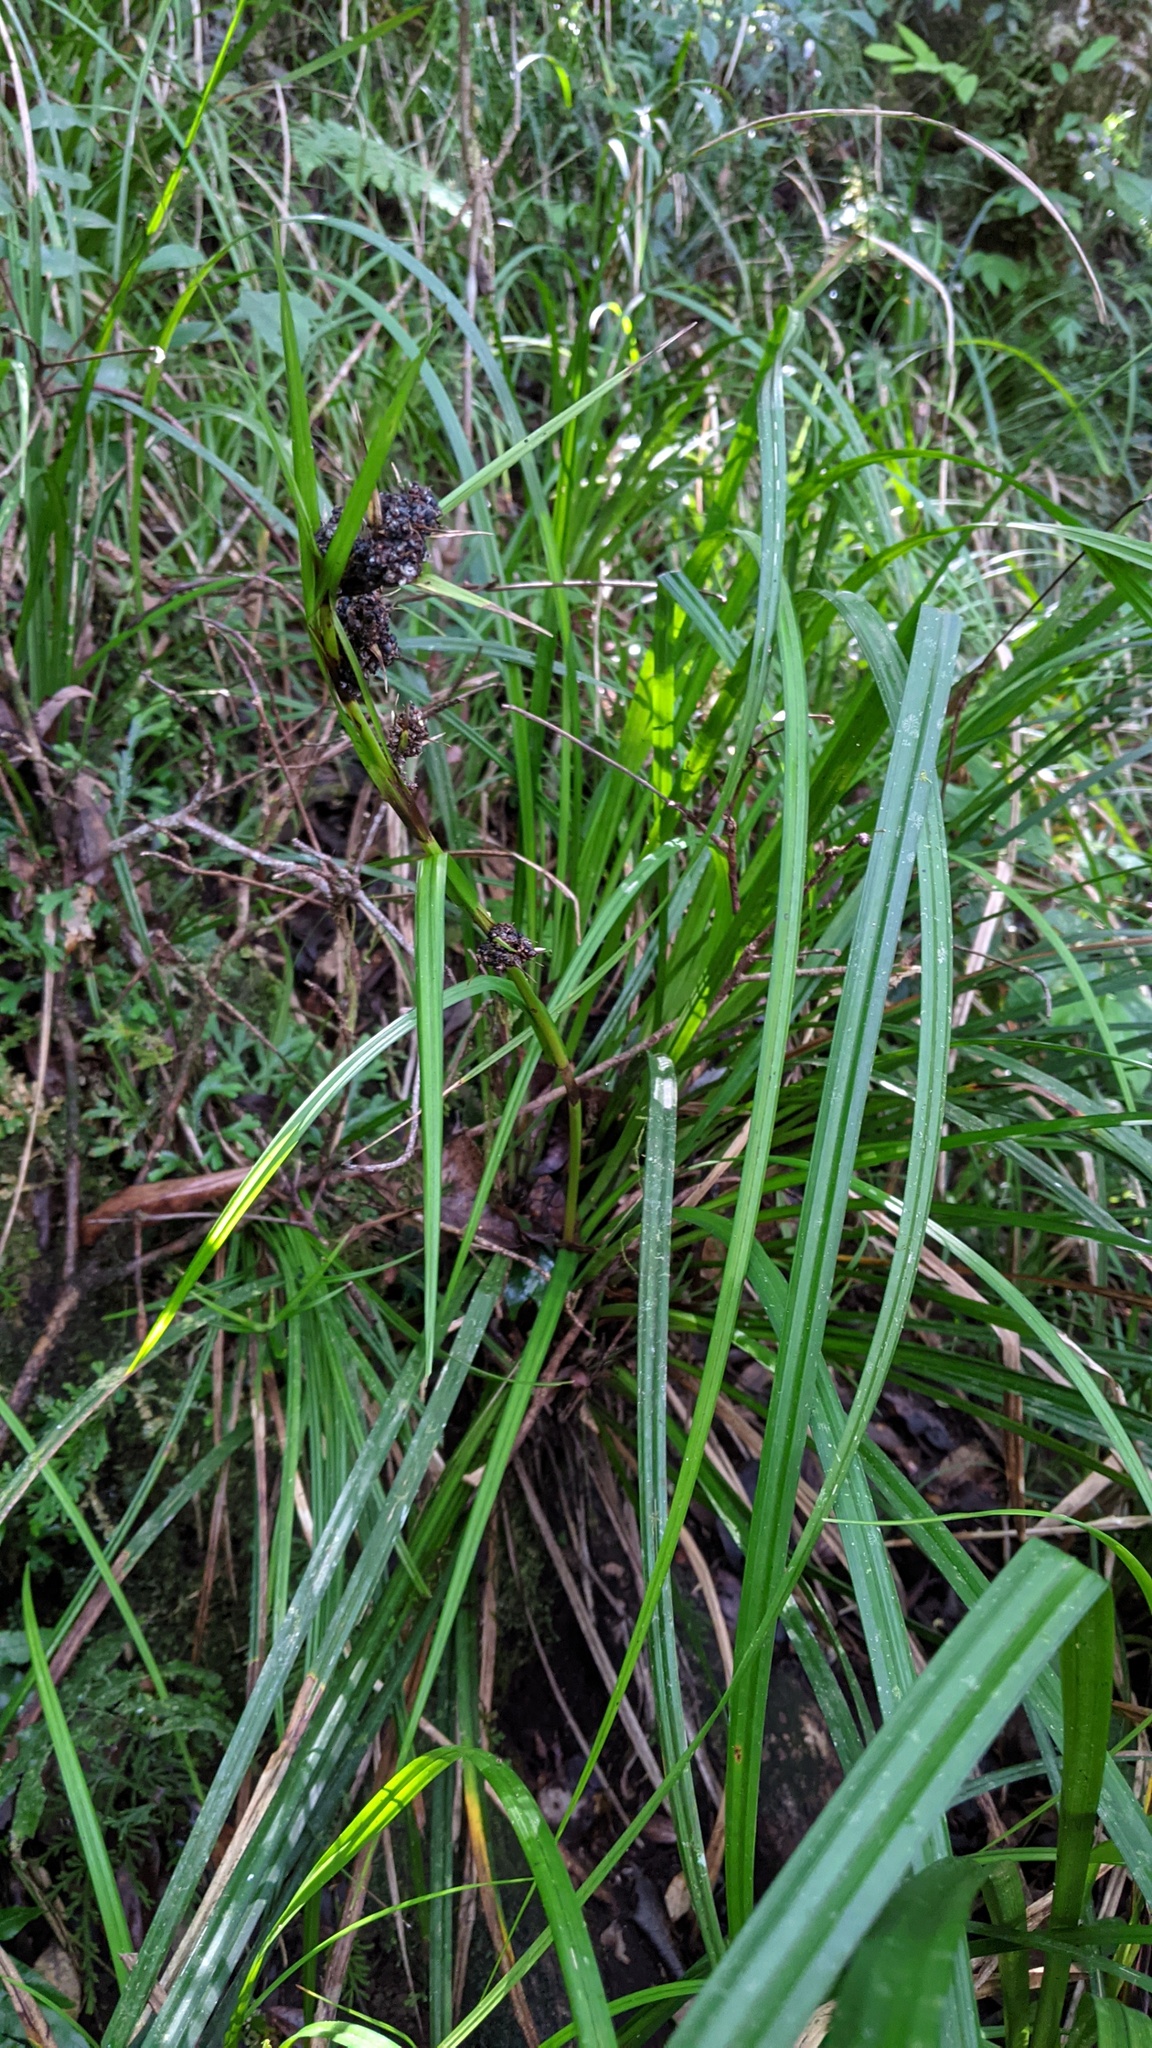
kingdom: Plantae
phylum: Tracheophyta
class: Liliopsida
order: Poales
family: Cyperaceae
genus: Gahnia
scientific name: Gahnia tristis
